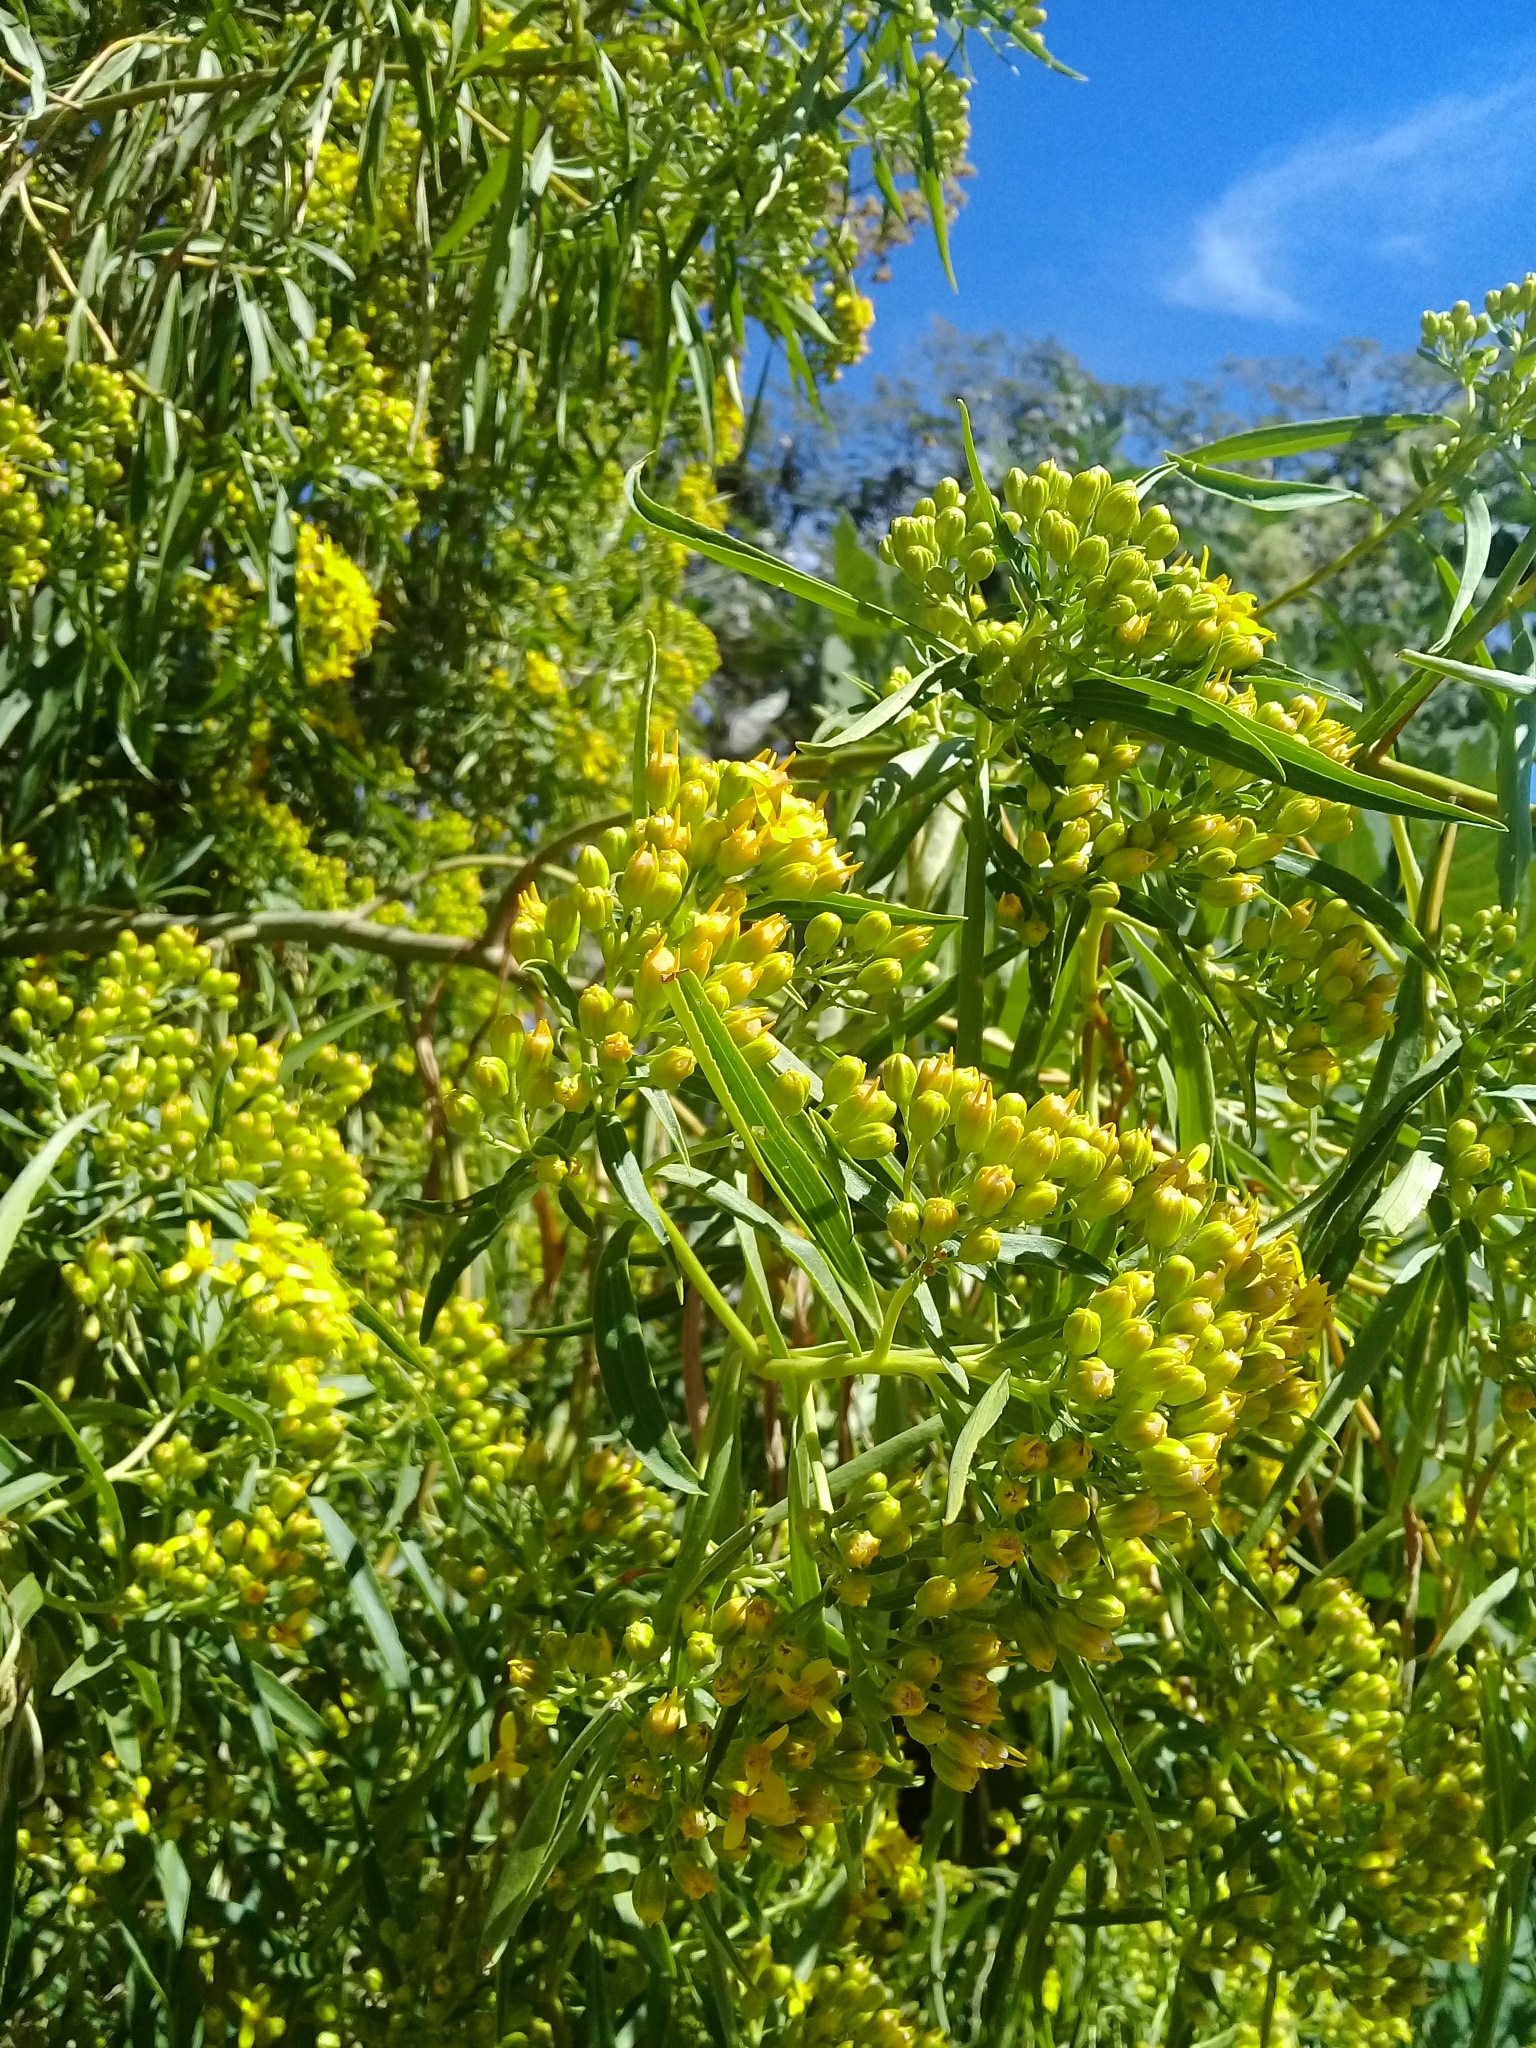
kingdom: Plantae
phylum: Tracheophyta
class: Magnoliopsida
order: Asterales
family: Asteraceae
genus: Barkleyanthus
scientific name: Barkleyanthus salicifolius
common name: Willow ragwort
